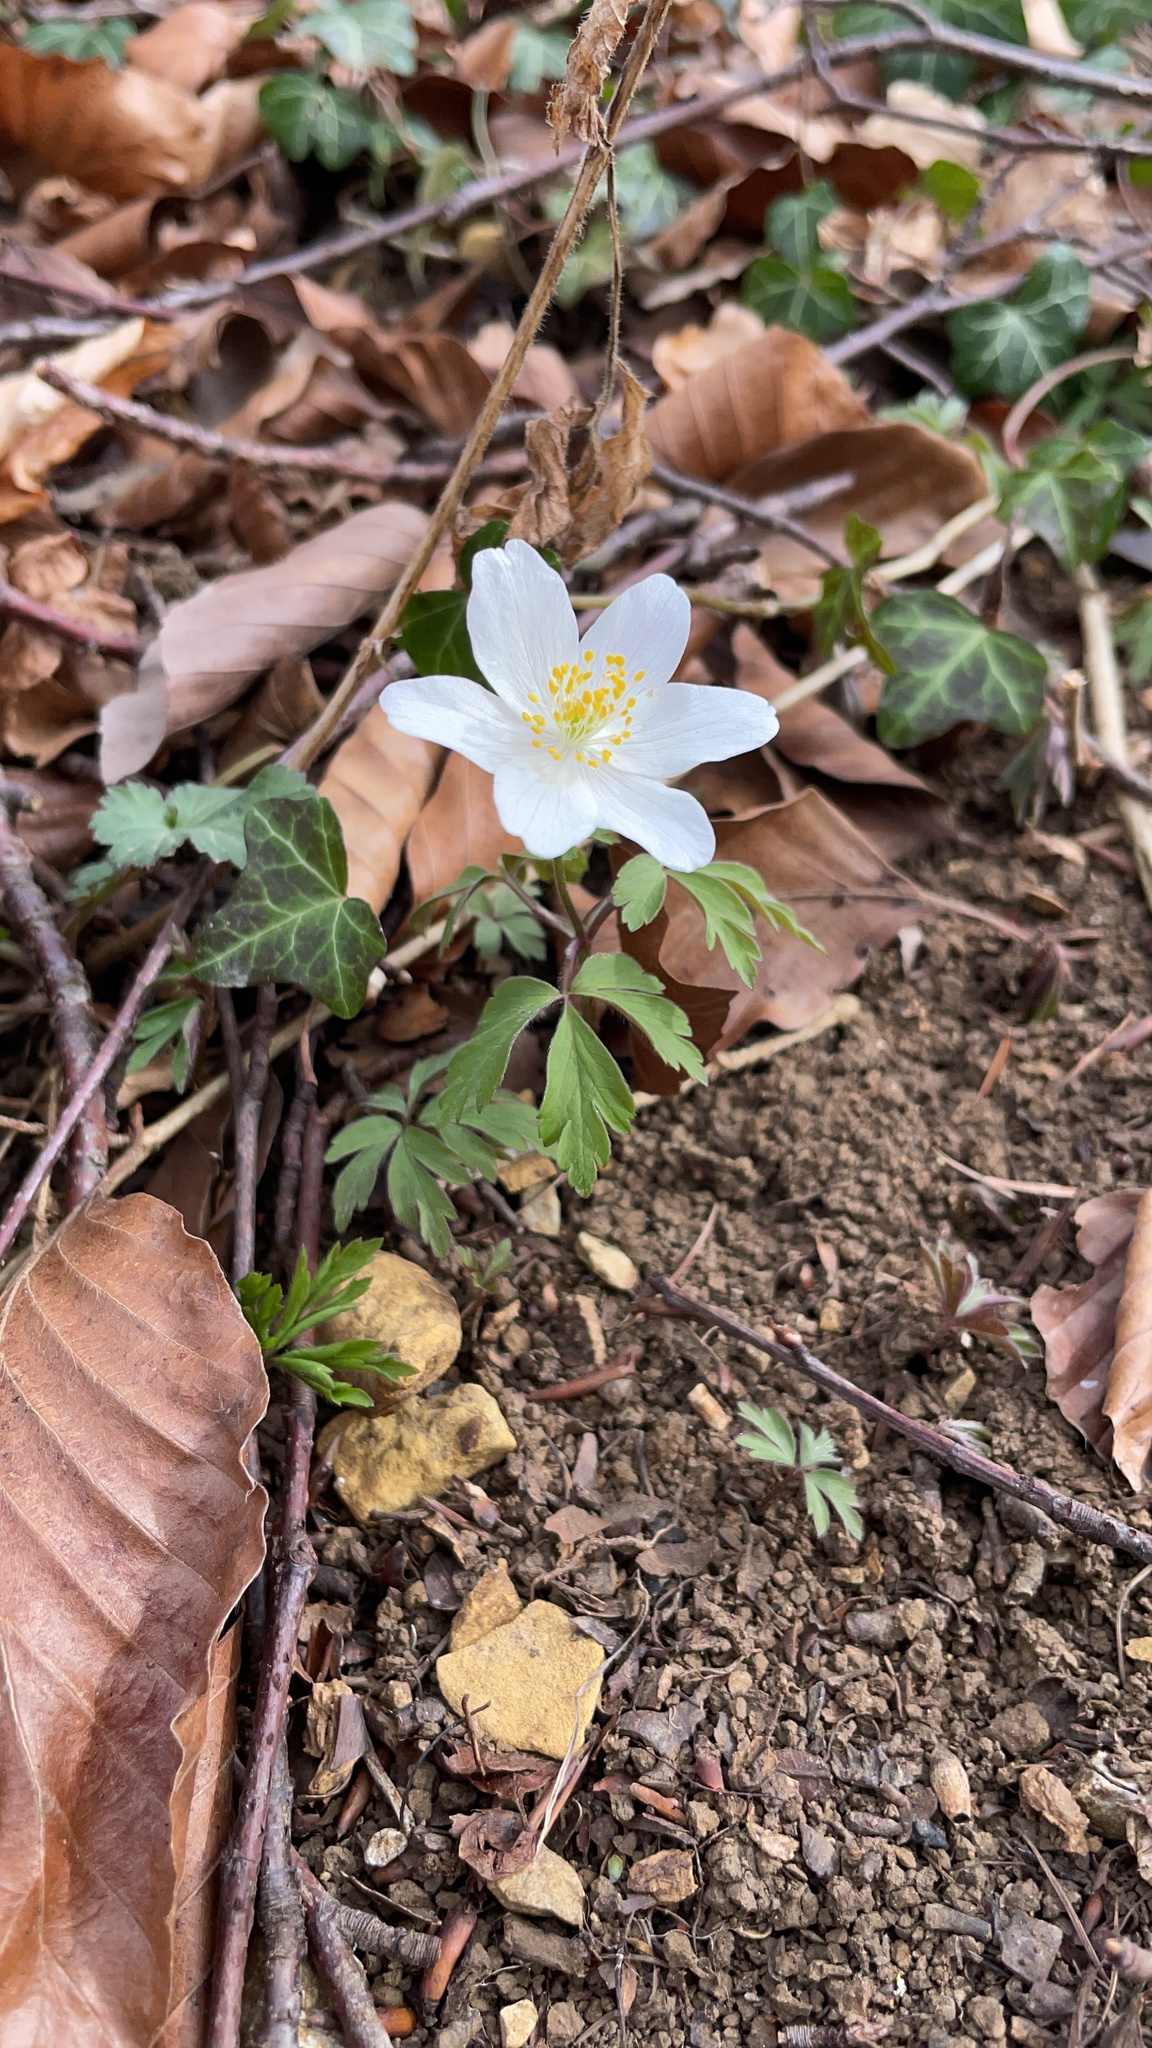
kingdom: Plantae
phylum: Tracheophyta
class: Magnoliopsida
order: Ranunculales
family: Ranunculaceae
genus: Anemone
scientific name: Anemone nemorosa
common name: Wood anemone
